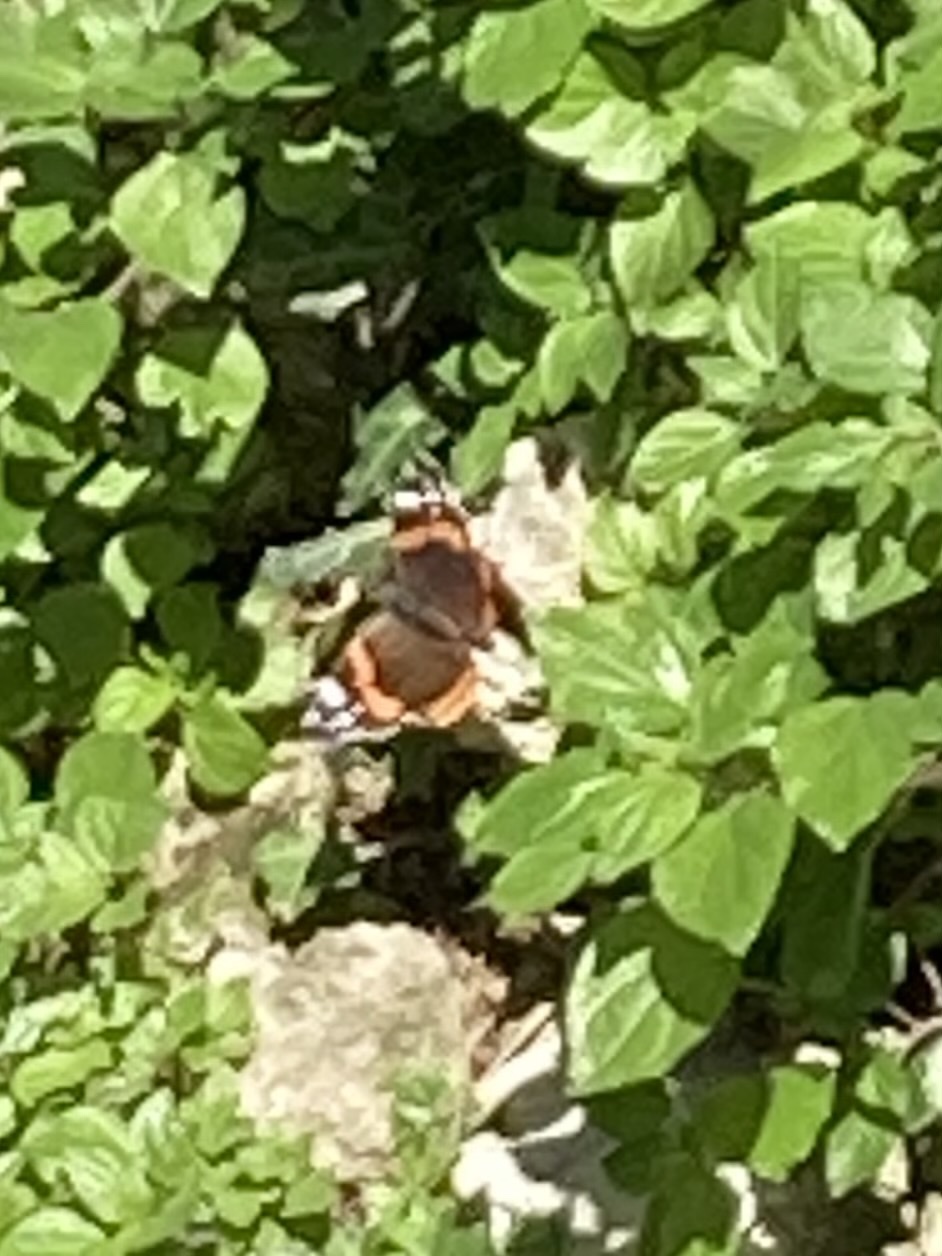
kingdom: Animalia
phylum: Arthropoda
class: Insecta
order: Lepidoptera
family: Nymphalidae
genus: Vanessa
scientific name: Vanessa atalanta
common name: Red admiral
